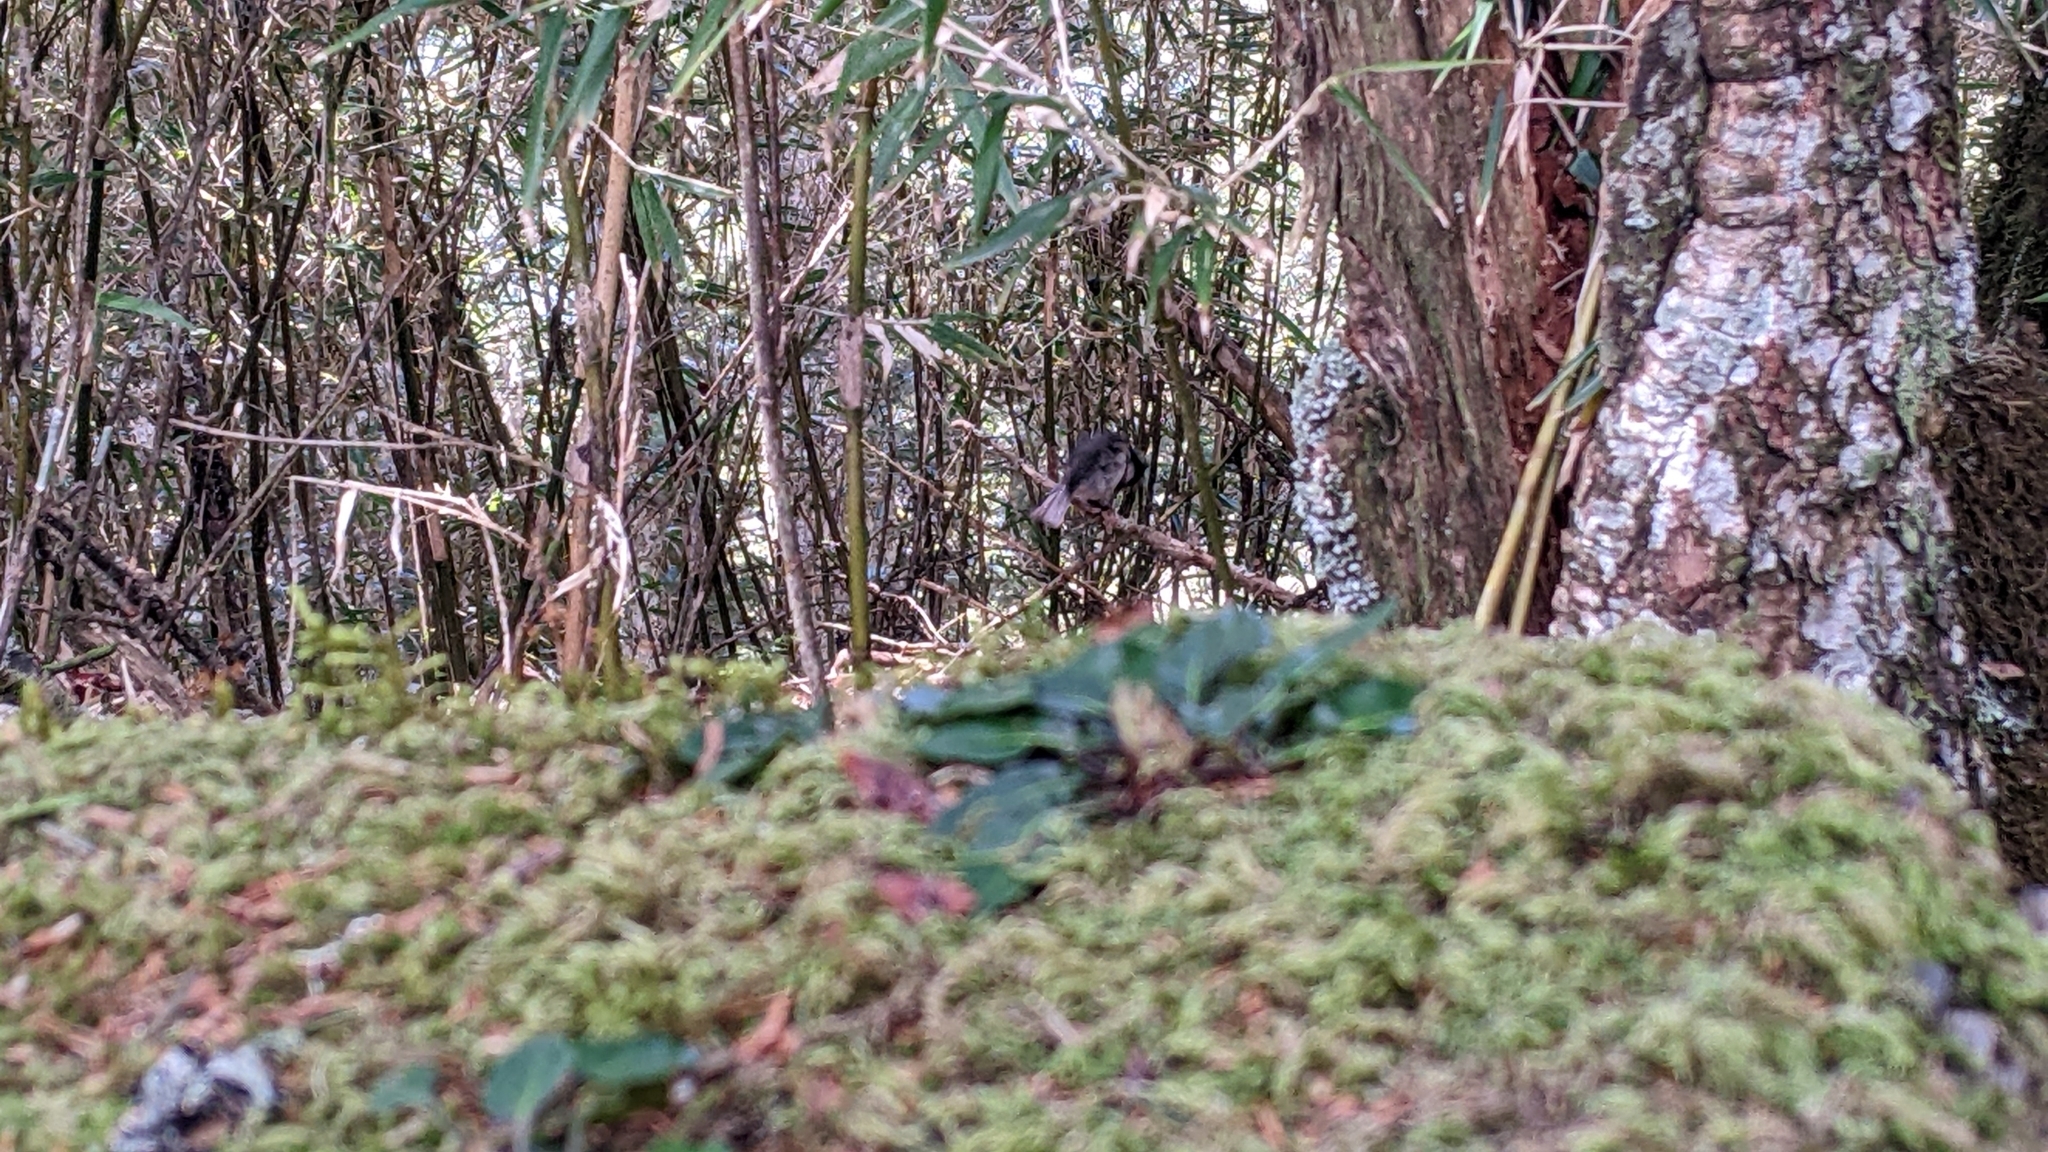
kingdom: Animalia
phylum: Chordata
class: Aves
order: Passeriformes
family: Paridae
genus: Periparus
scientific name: Periparus ater
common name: Coal tit
